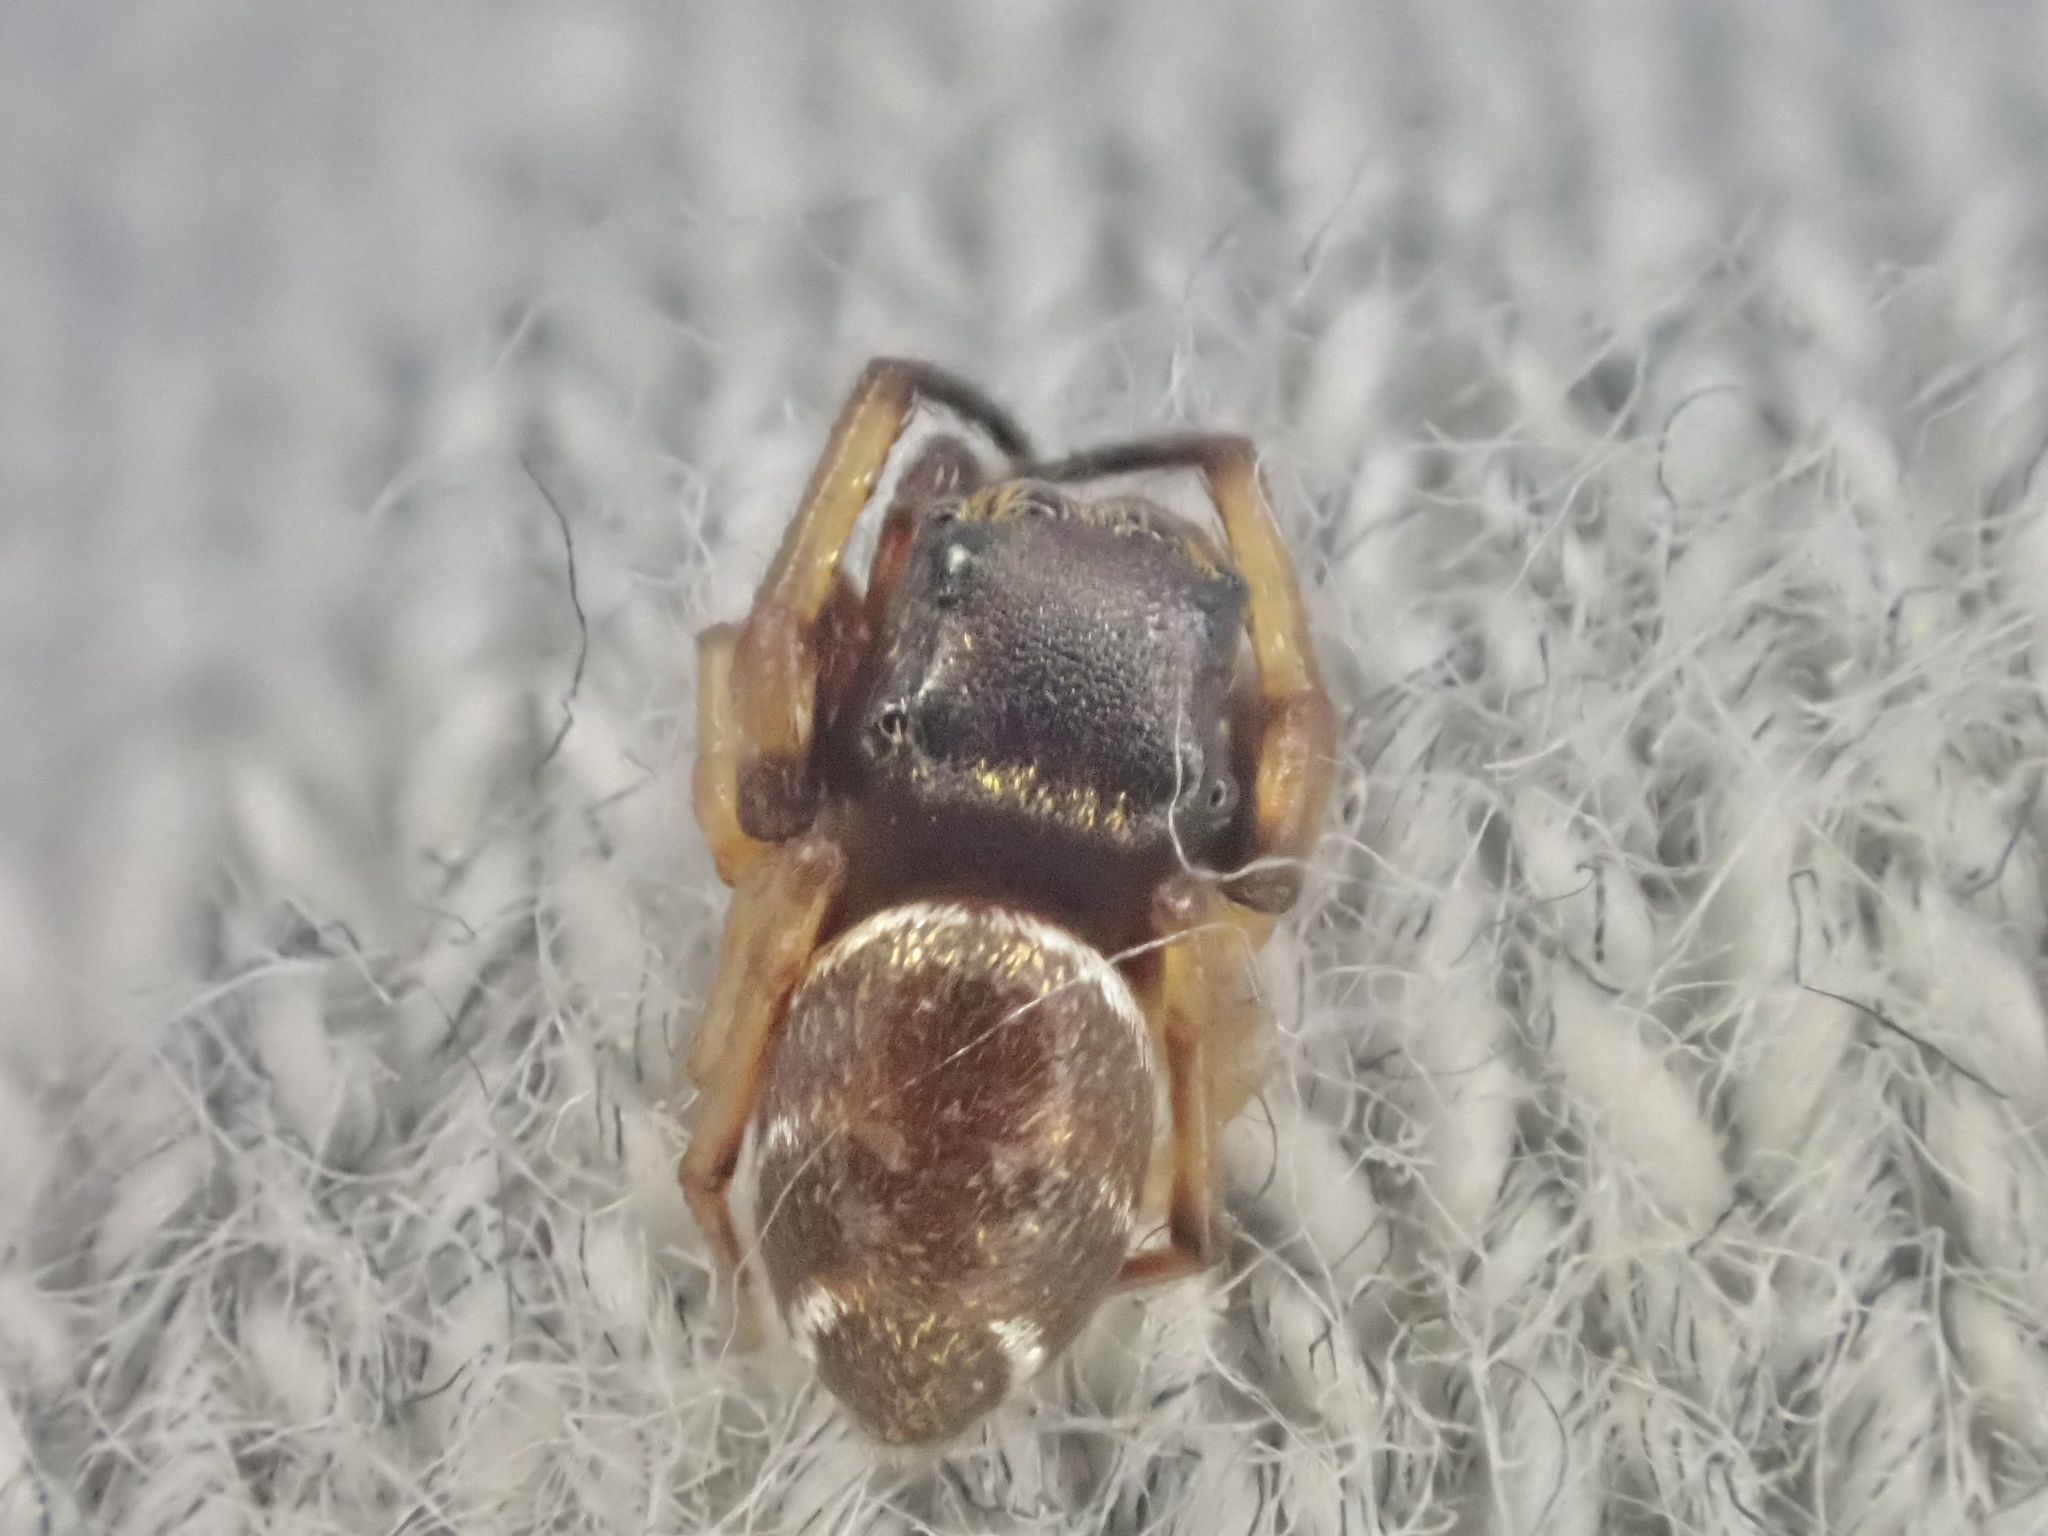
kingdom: Animalia
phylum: Arthropoda
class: Arachnida
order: Araneae
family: Salticidae
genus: Zygoballus
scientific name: Zygoballus rufipes
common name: Jumping spiders
